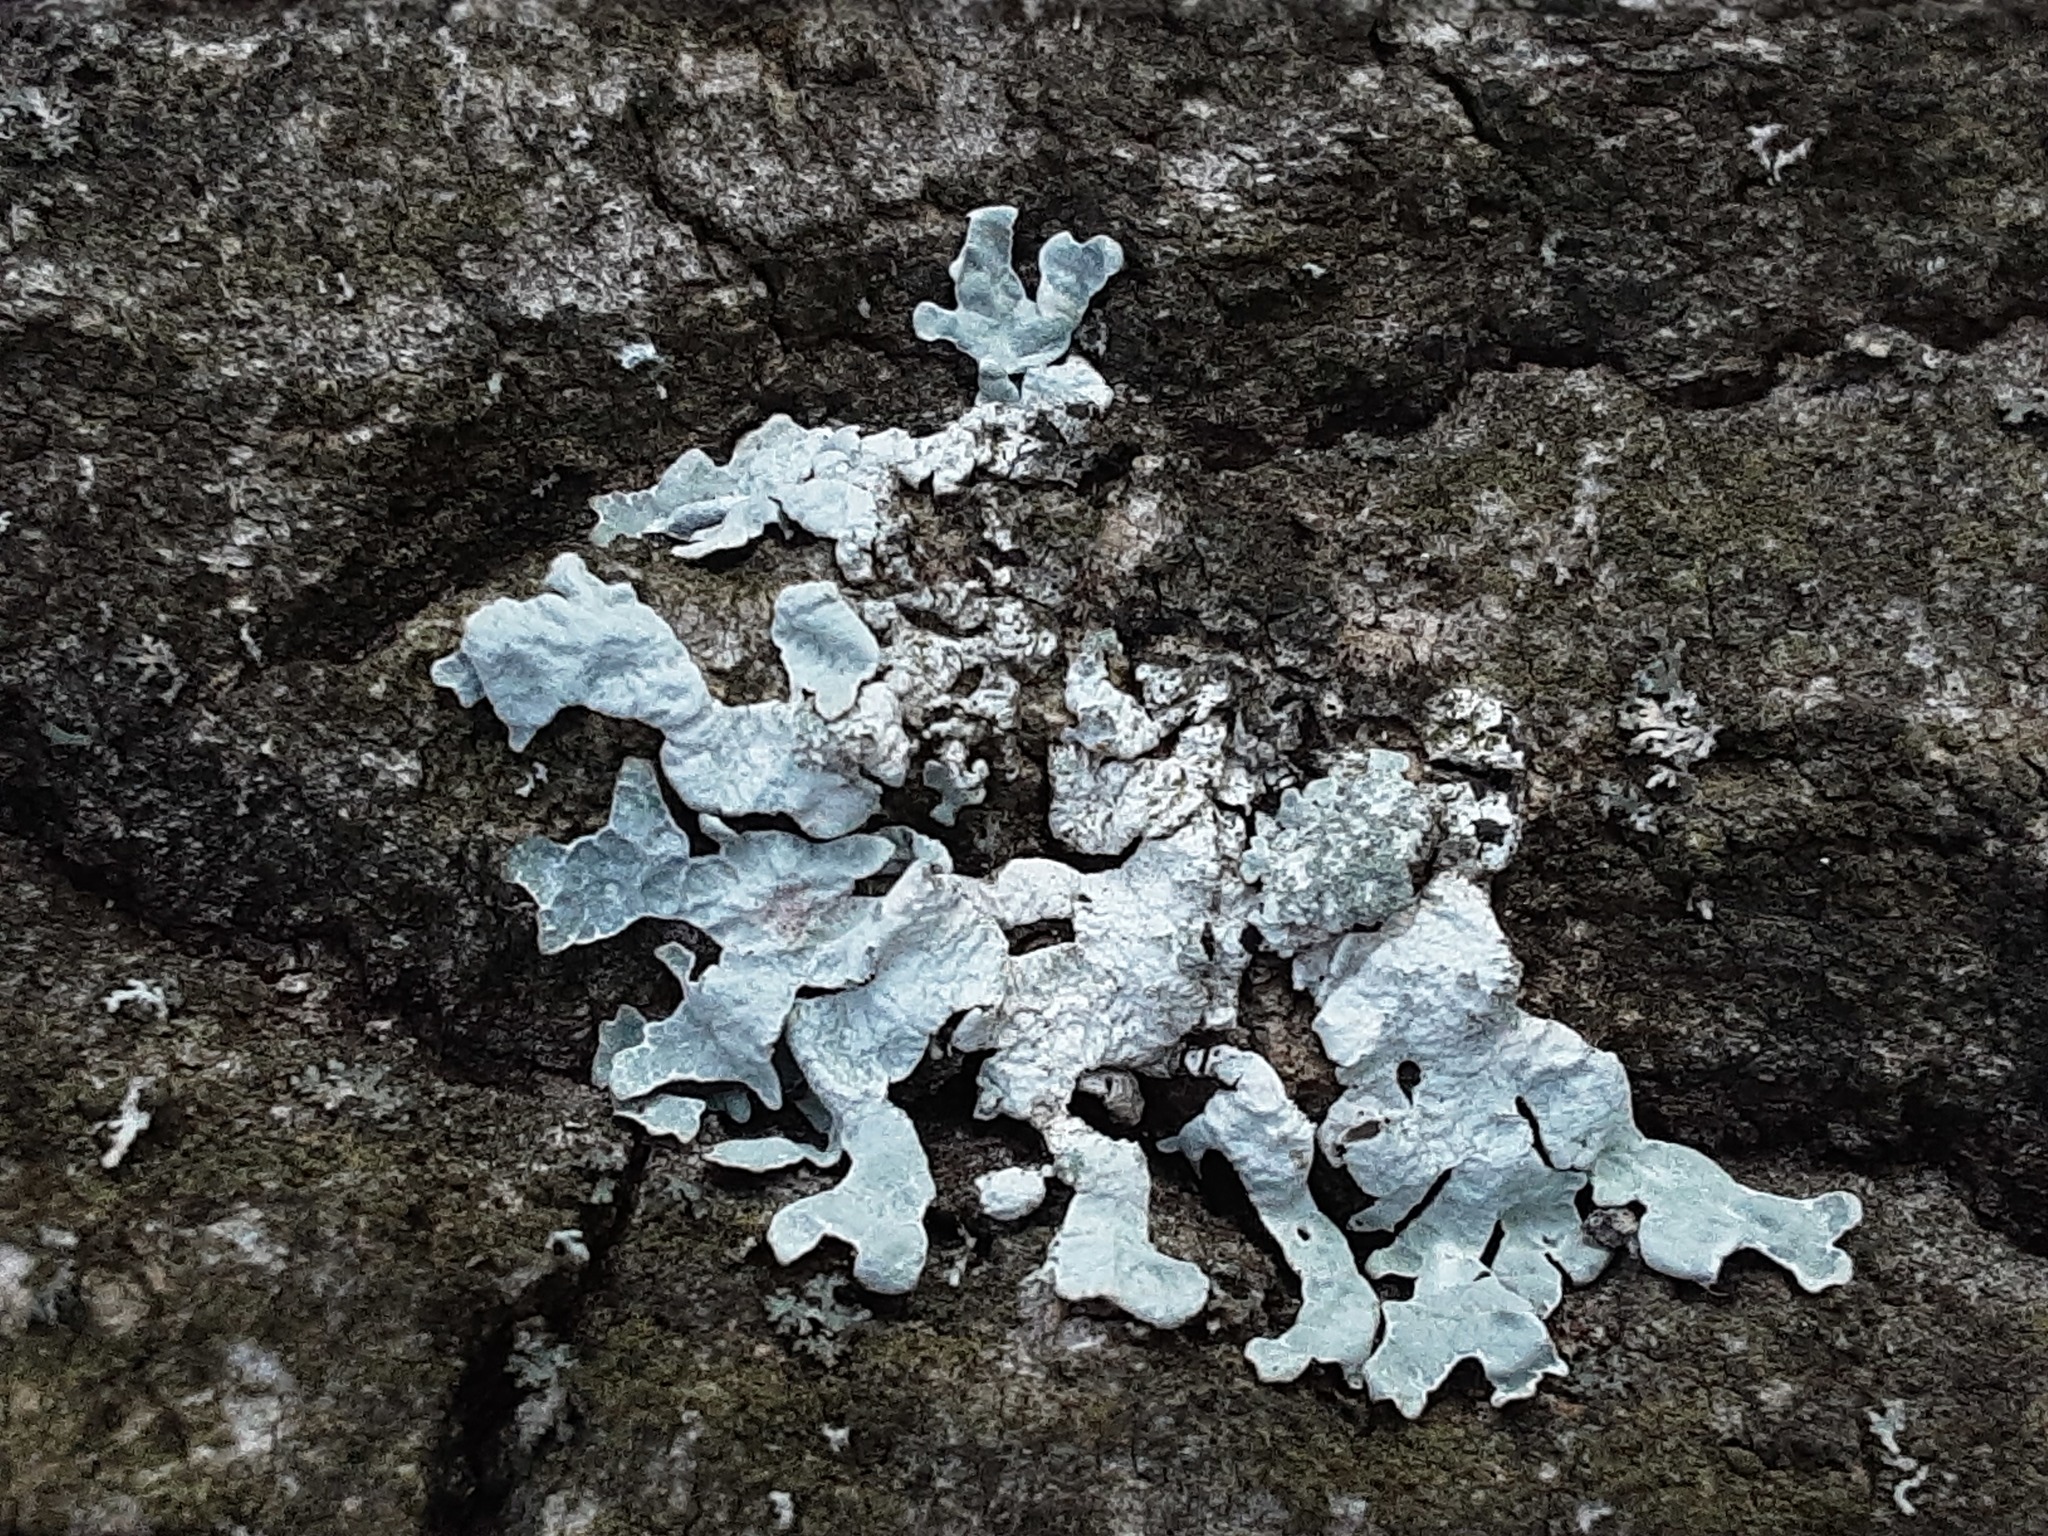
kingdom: Fungi
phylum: Ascomycota
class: Lecanoromycetes
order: Lecanorales
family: Parmeliaceae
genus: Parmelia
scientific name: Parmelia sulcata
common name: Netted shield lichen
